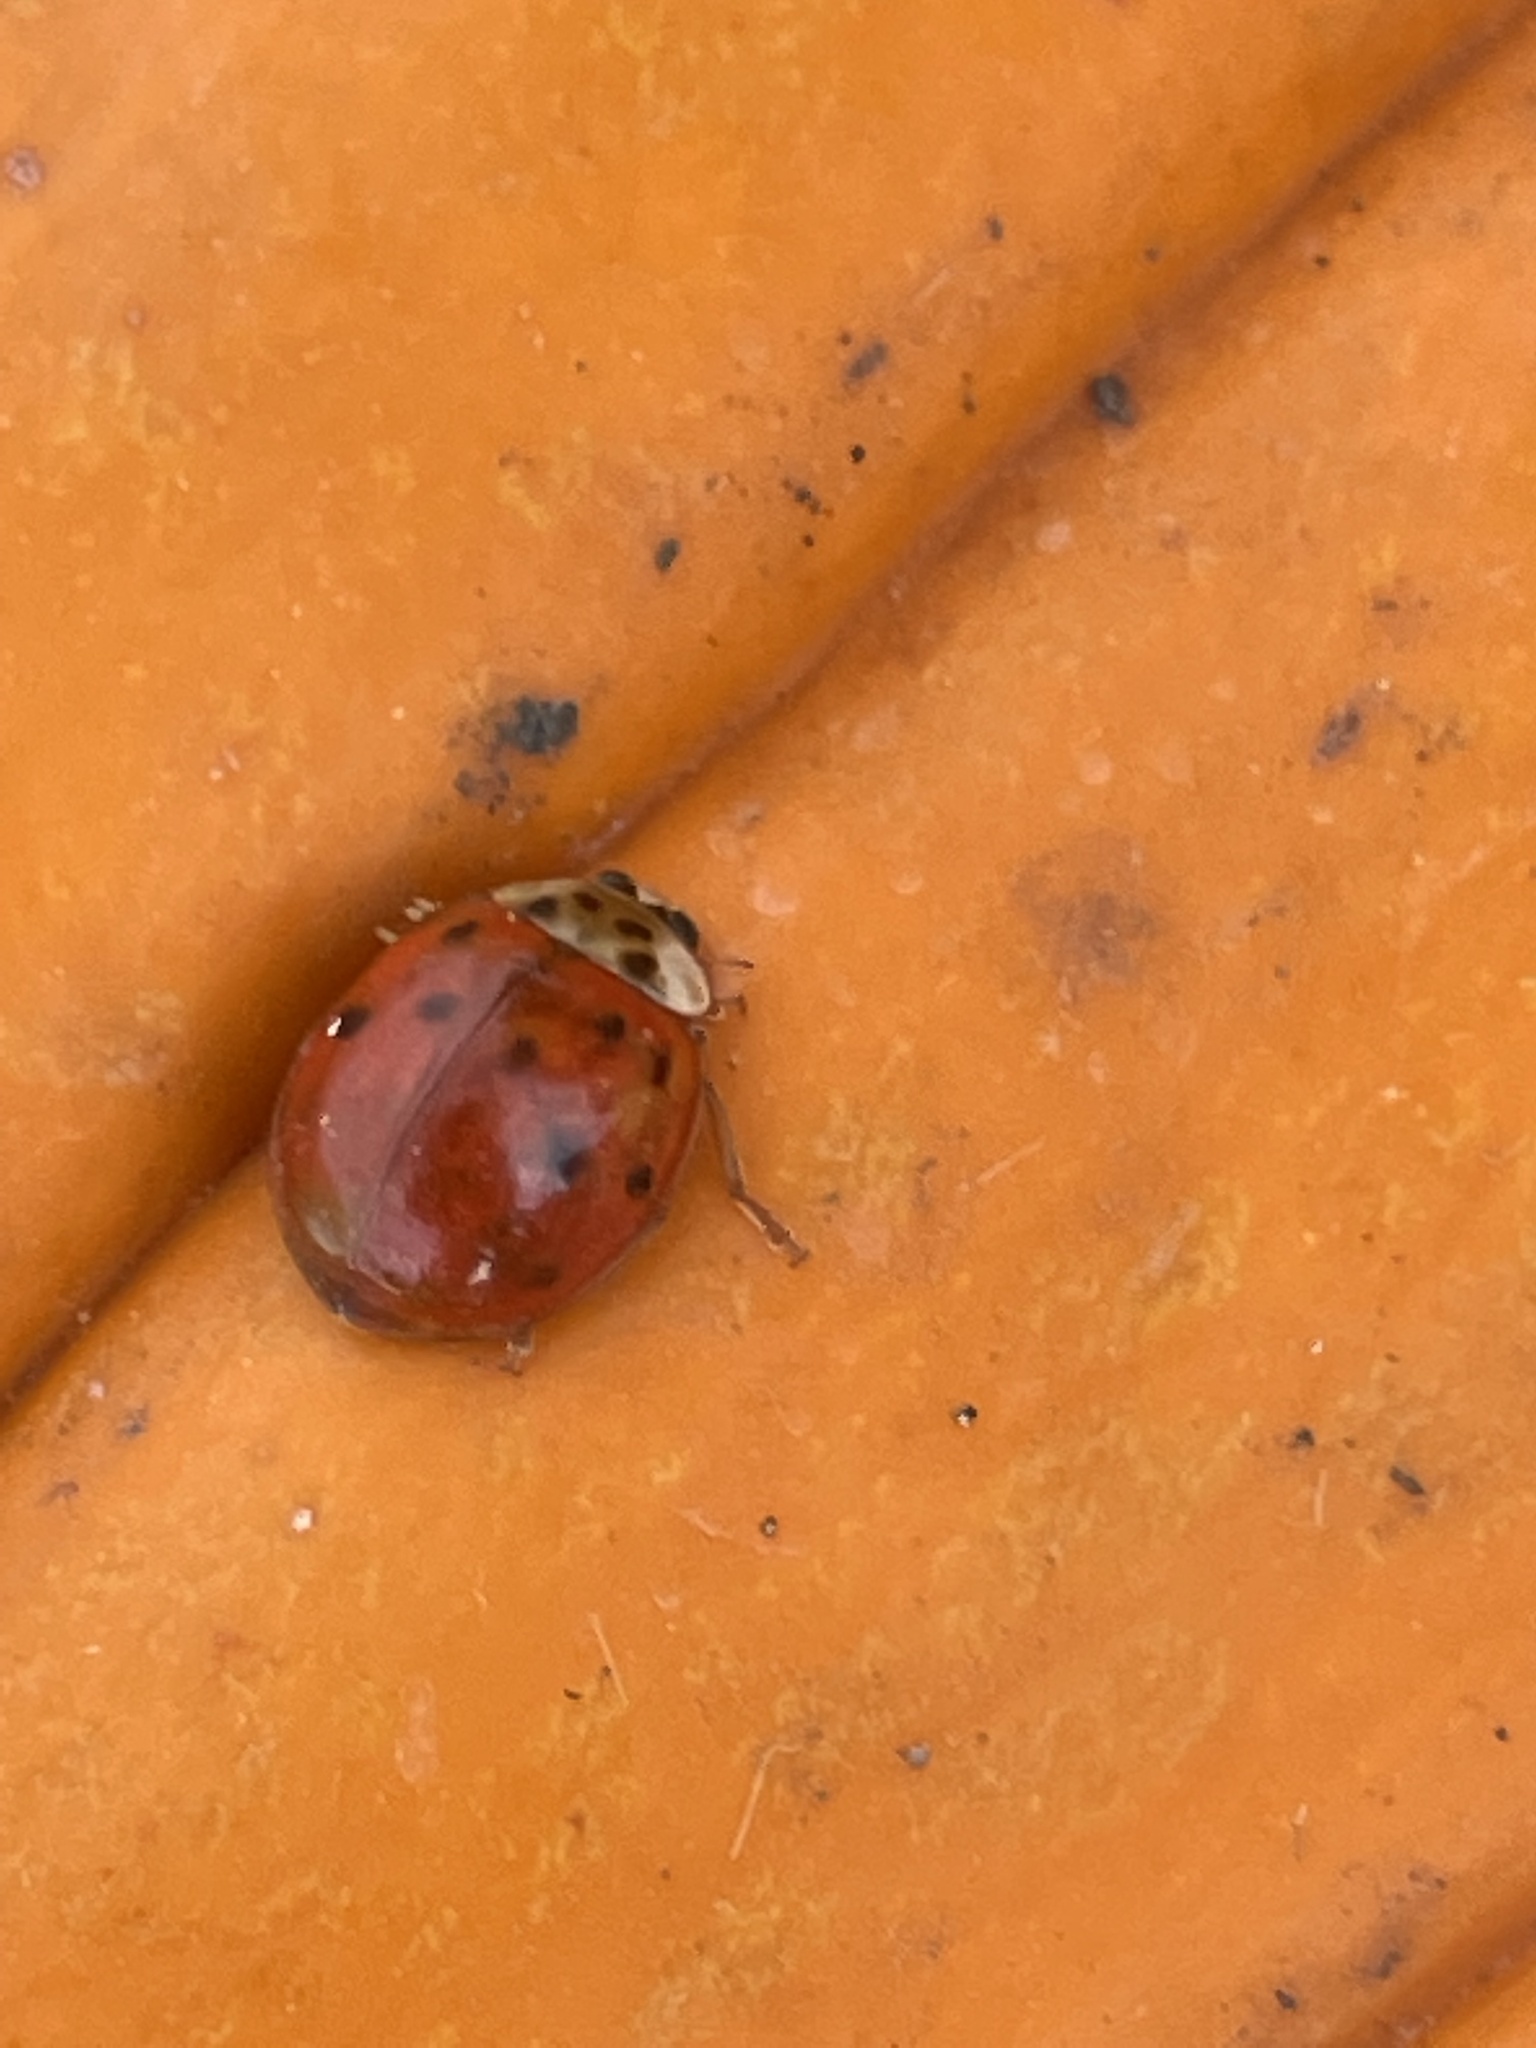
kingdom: Fungi
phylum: Ascomycota
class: Laboulbeniomycetes
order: Laboulbeniales
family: Laboulbeniaceae
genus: Hesperomyces
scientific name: Hesperomyces harmoniae
